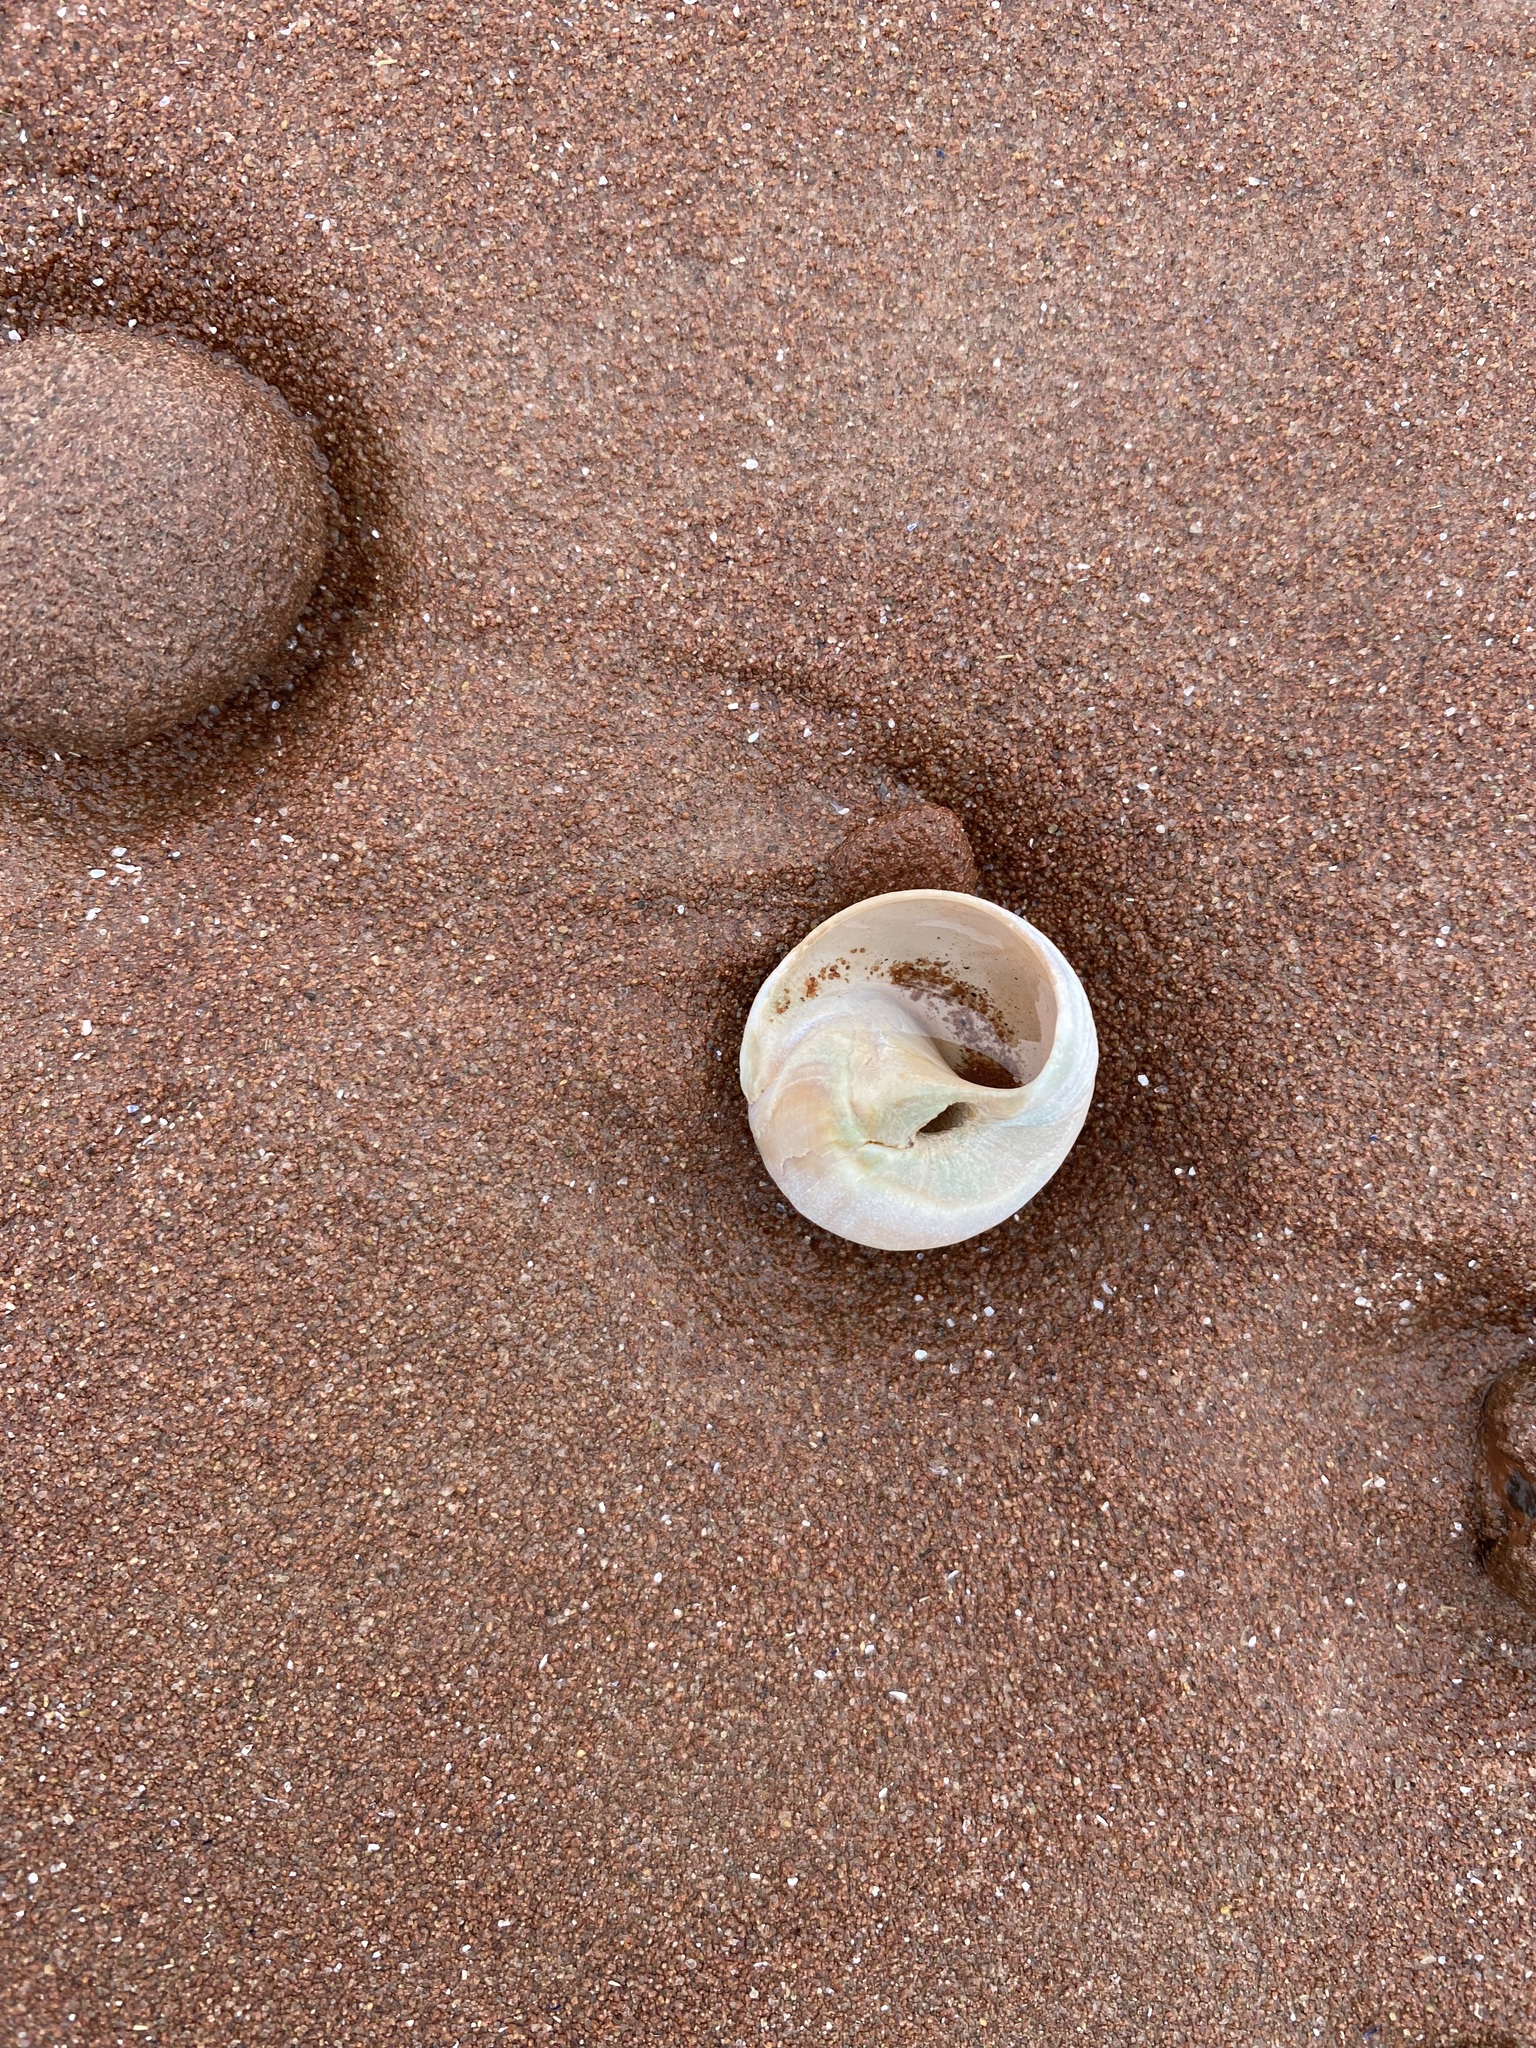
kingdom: Animalia
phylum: Mollusca
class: Gastropoda
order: Littorinimorpha
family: Naticidae
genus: Euspira
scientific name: Euspira heros
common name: Common northern moonsnail
